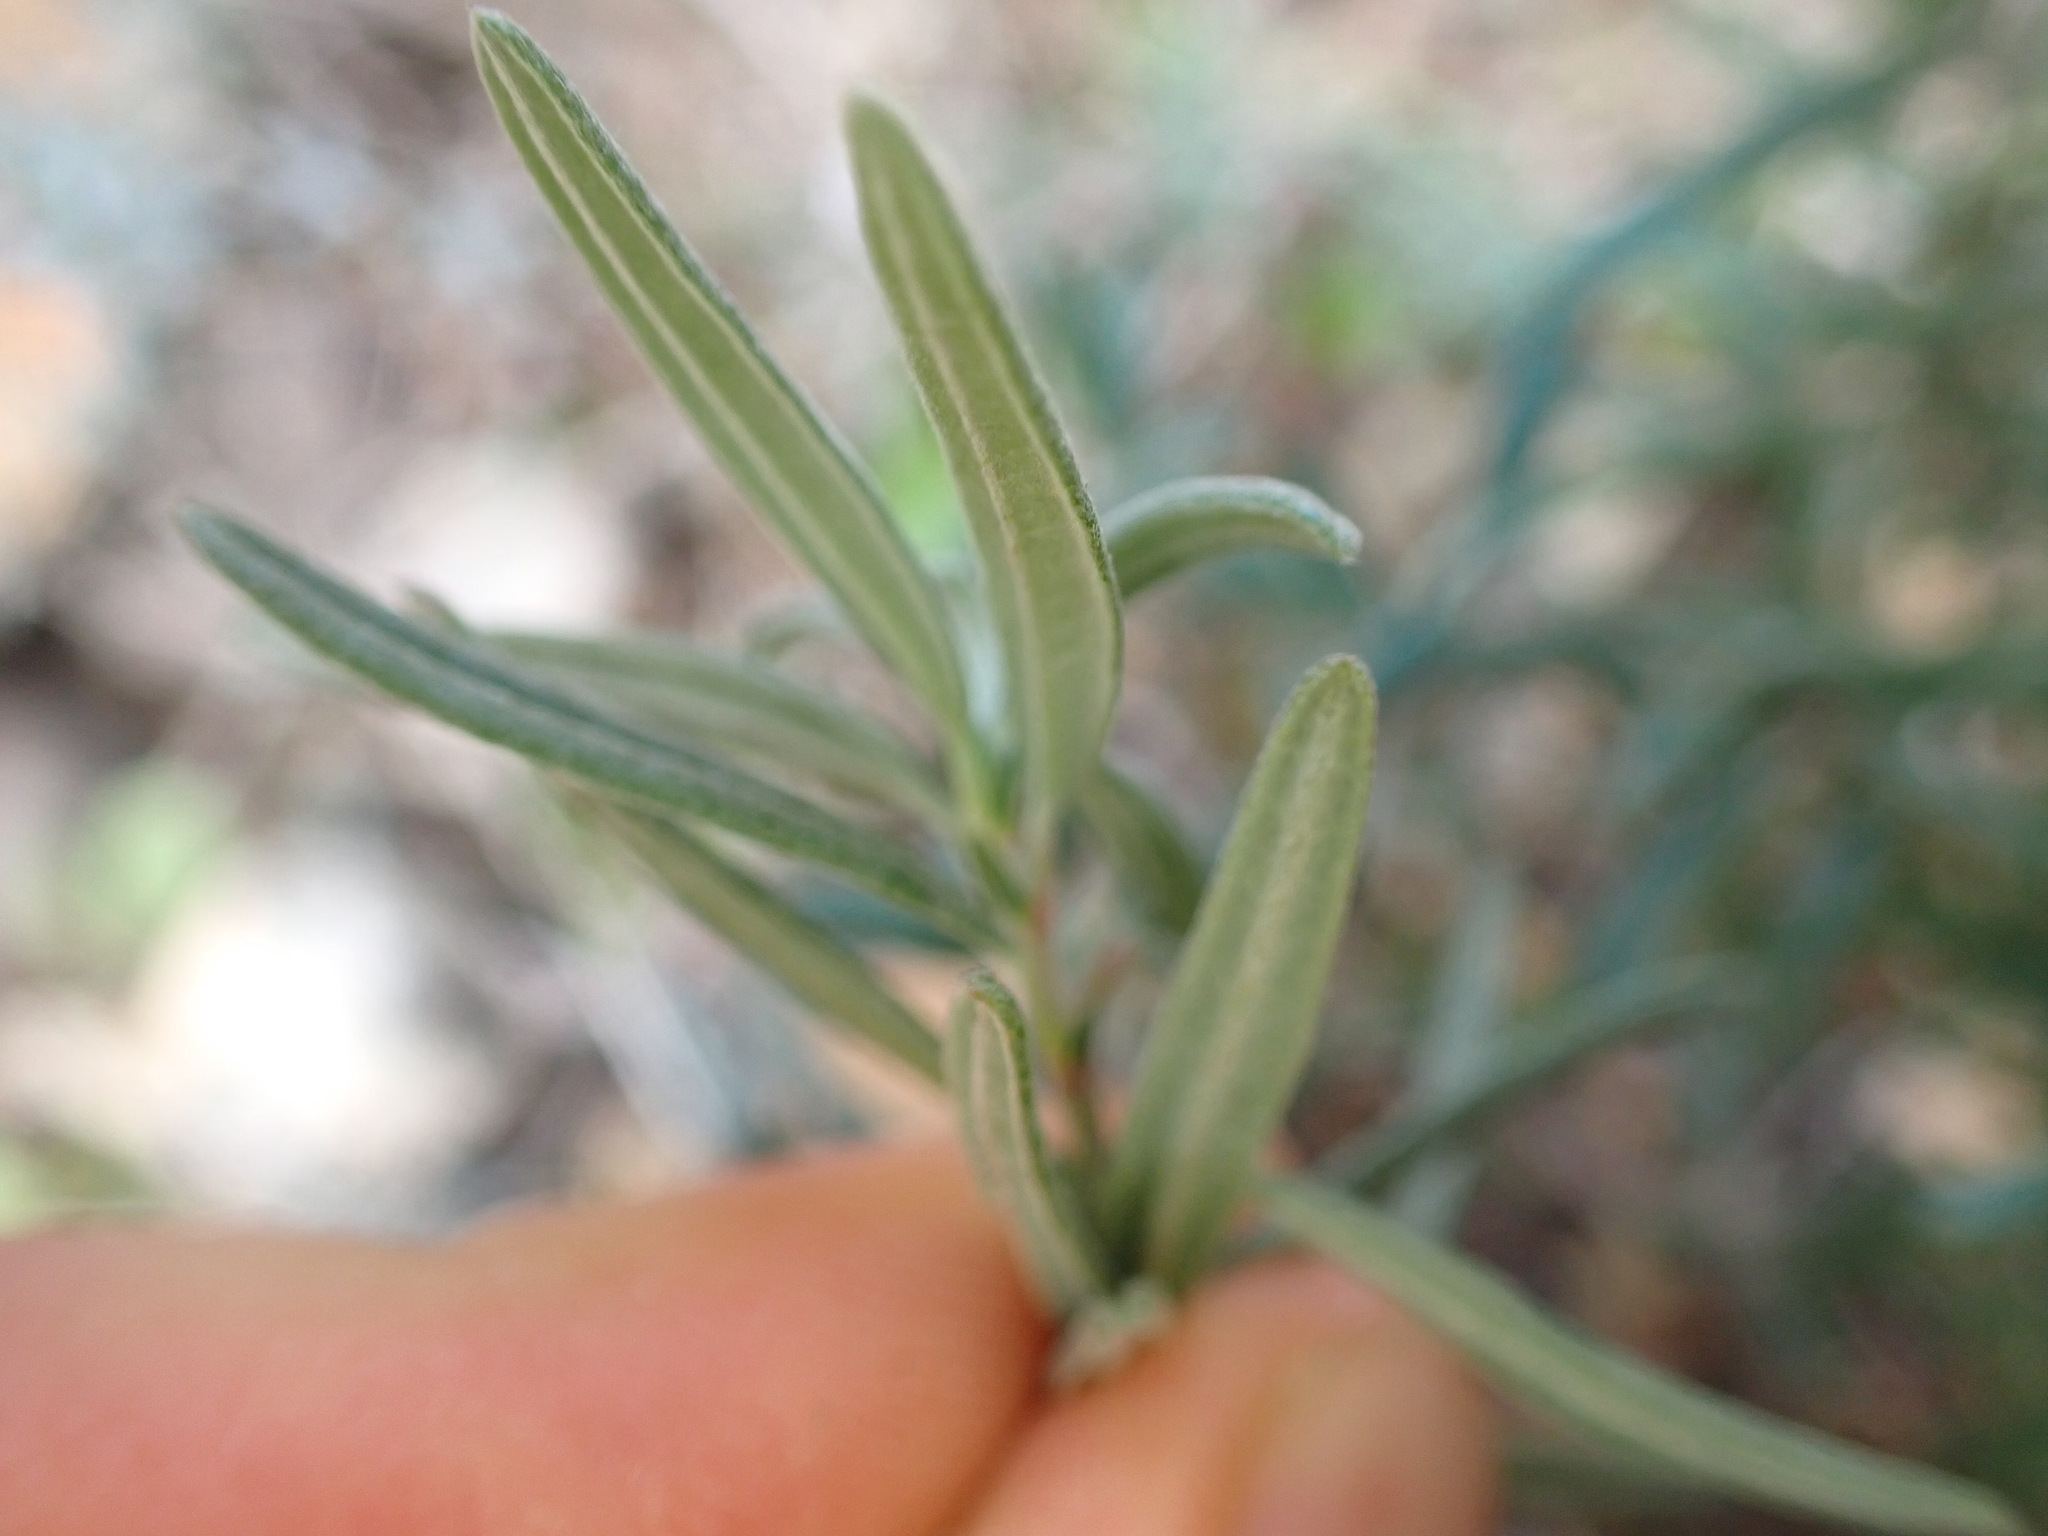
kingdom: Plantae
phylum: Tracheophyta
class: Magnoliopsida
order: Malvales
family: Cistaceae
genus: Helianthemum
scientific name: Helianthemum apenninum
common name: White rock-rose
